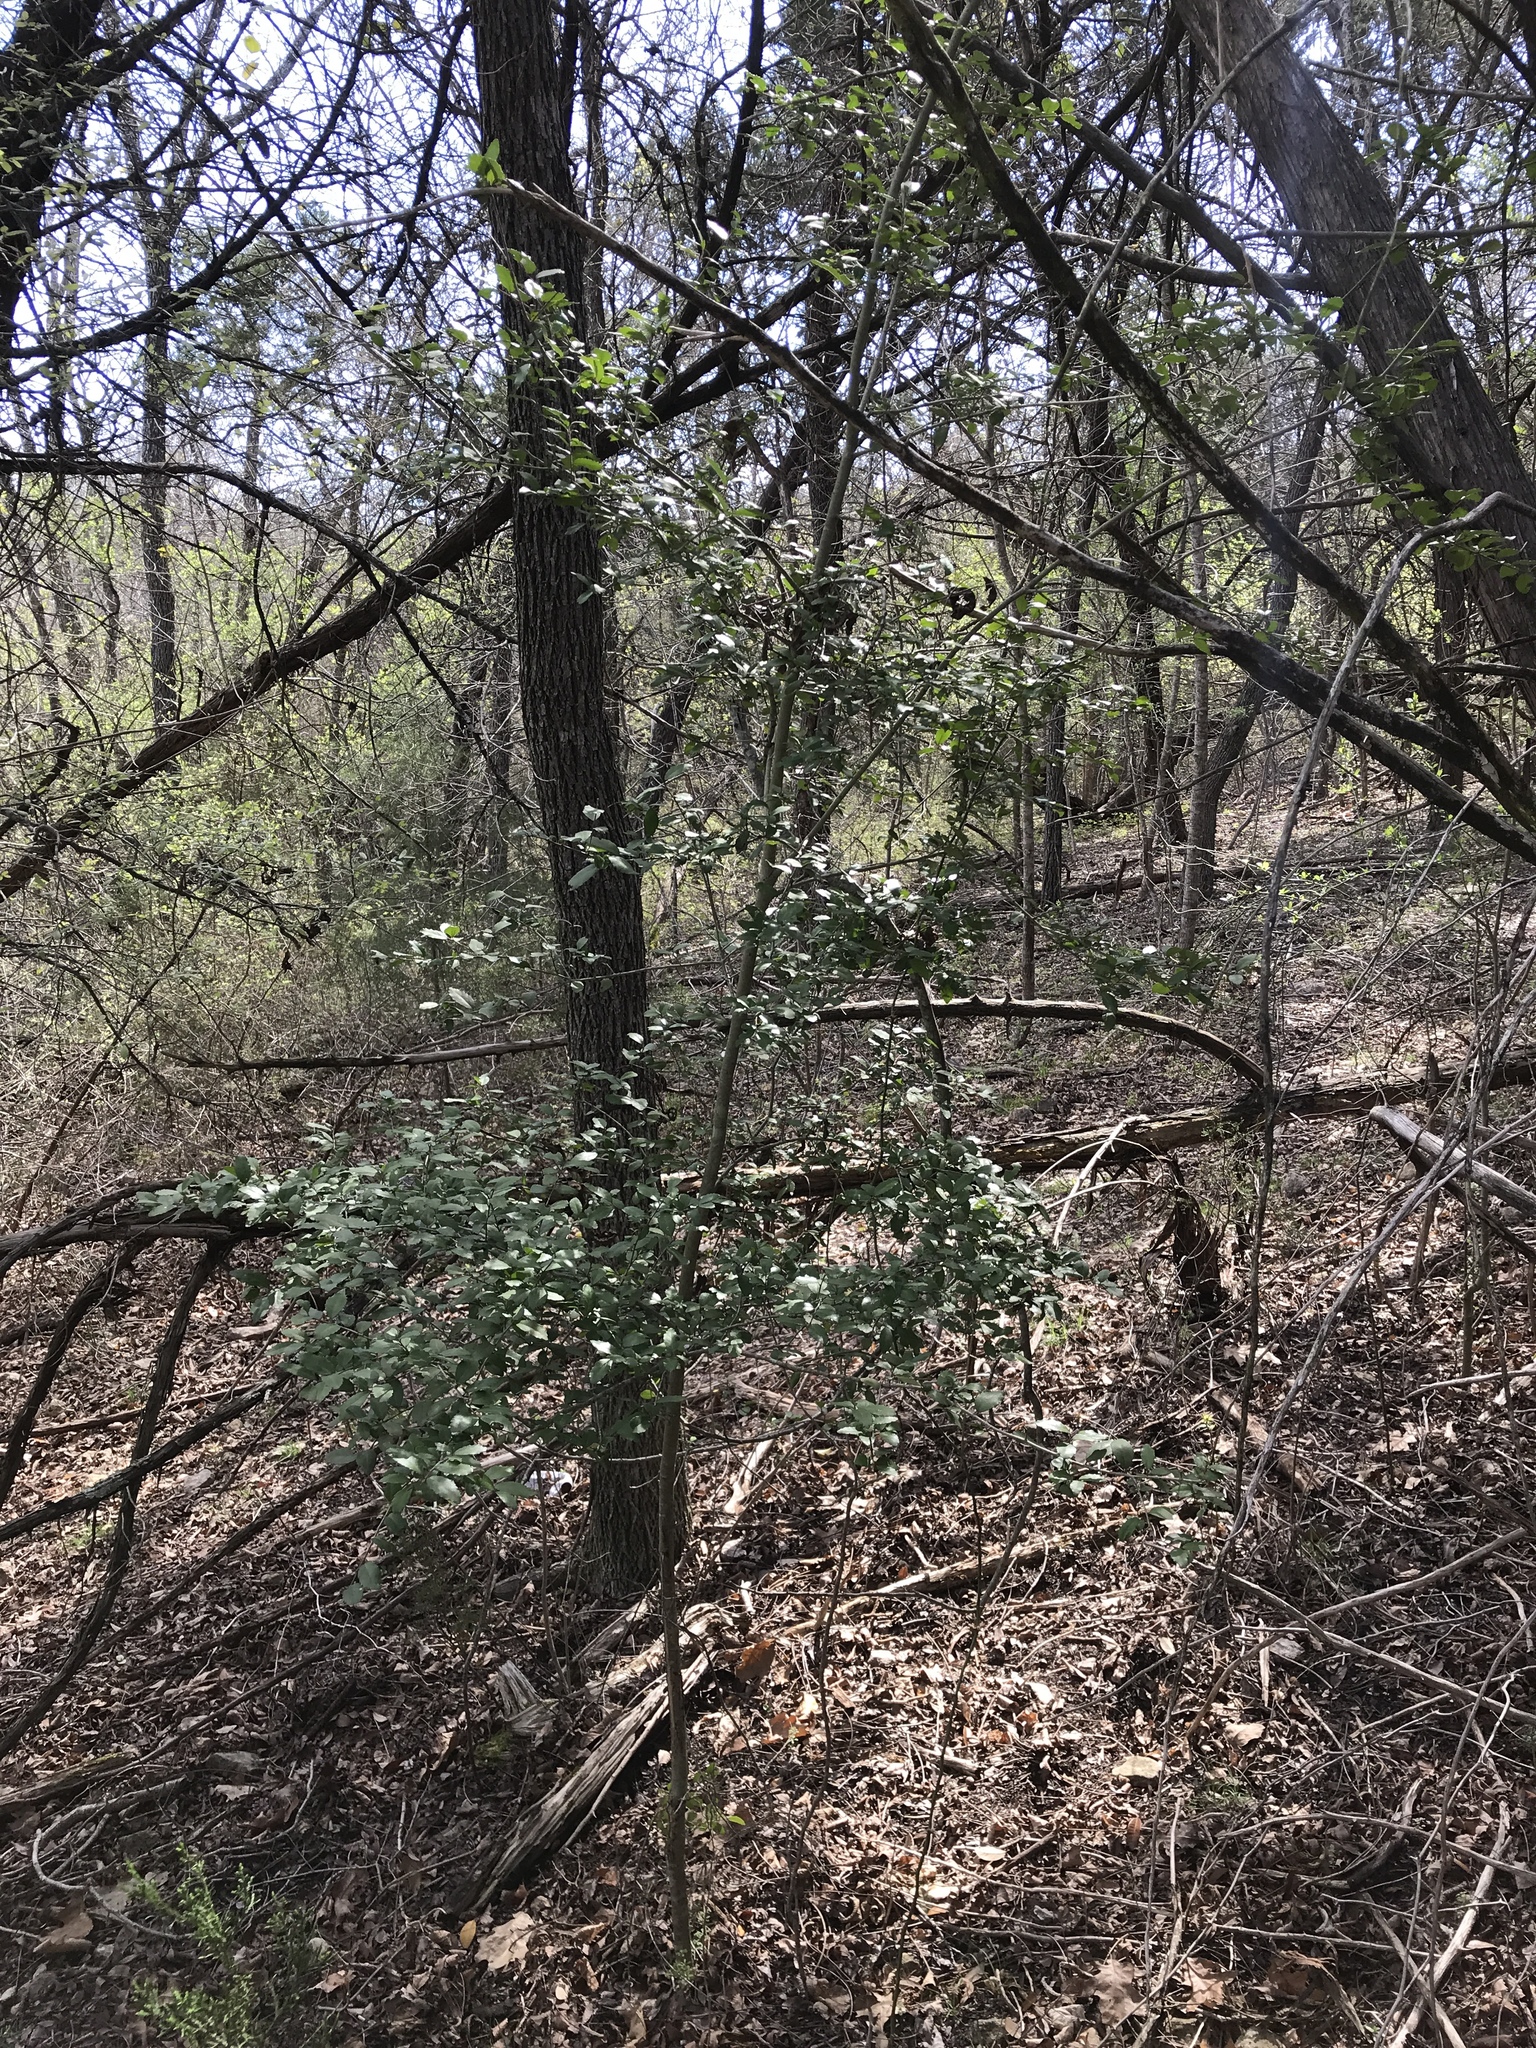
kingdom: Plantae
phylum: Tracheophyta
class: Magnoliopsida
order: Aquifoliales
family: Aquifoliaceae
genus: Ilex
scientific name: Ilex vomitoria
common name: Yaupon holly
